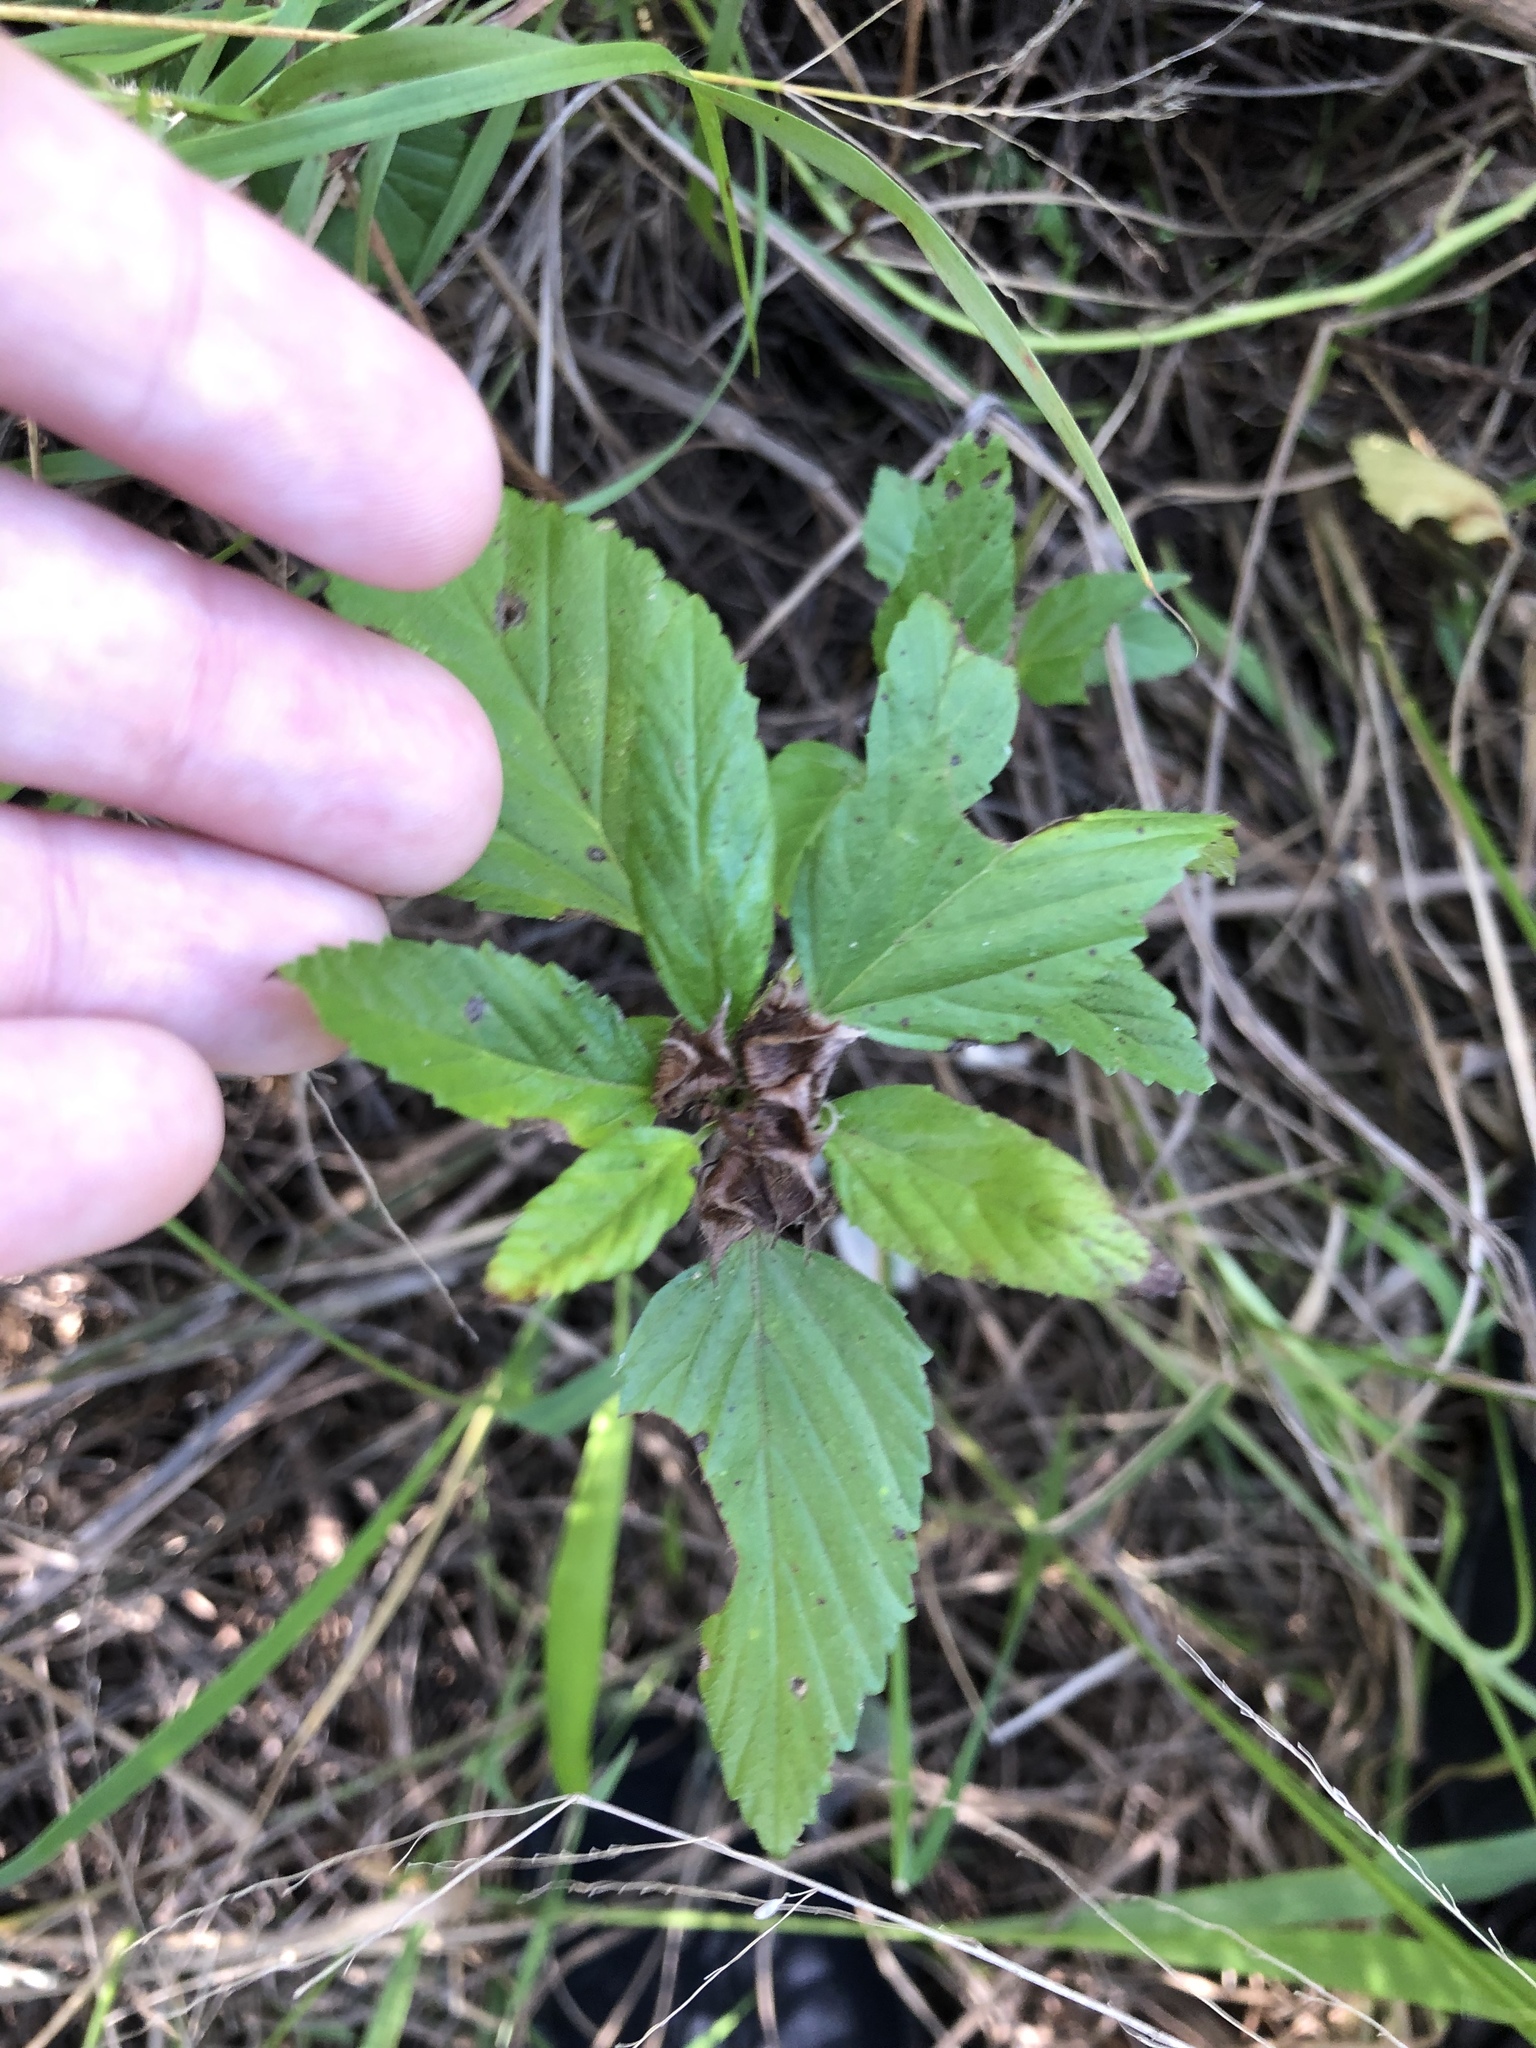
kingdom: Plantae
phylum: Tracheophyta
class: Magnoliopsida
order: Malvales
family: Malvaceae
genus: Malvastrum
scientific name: Malvastrum coromandelianum
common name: Threelobe false mallow
